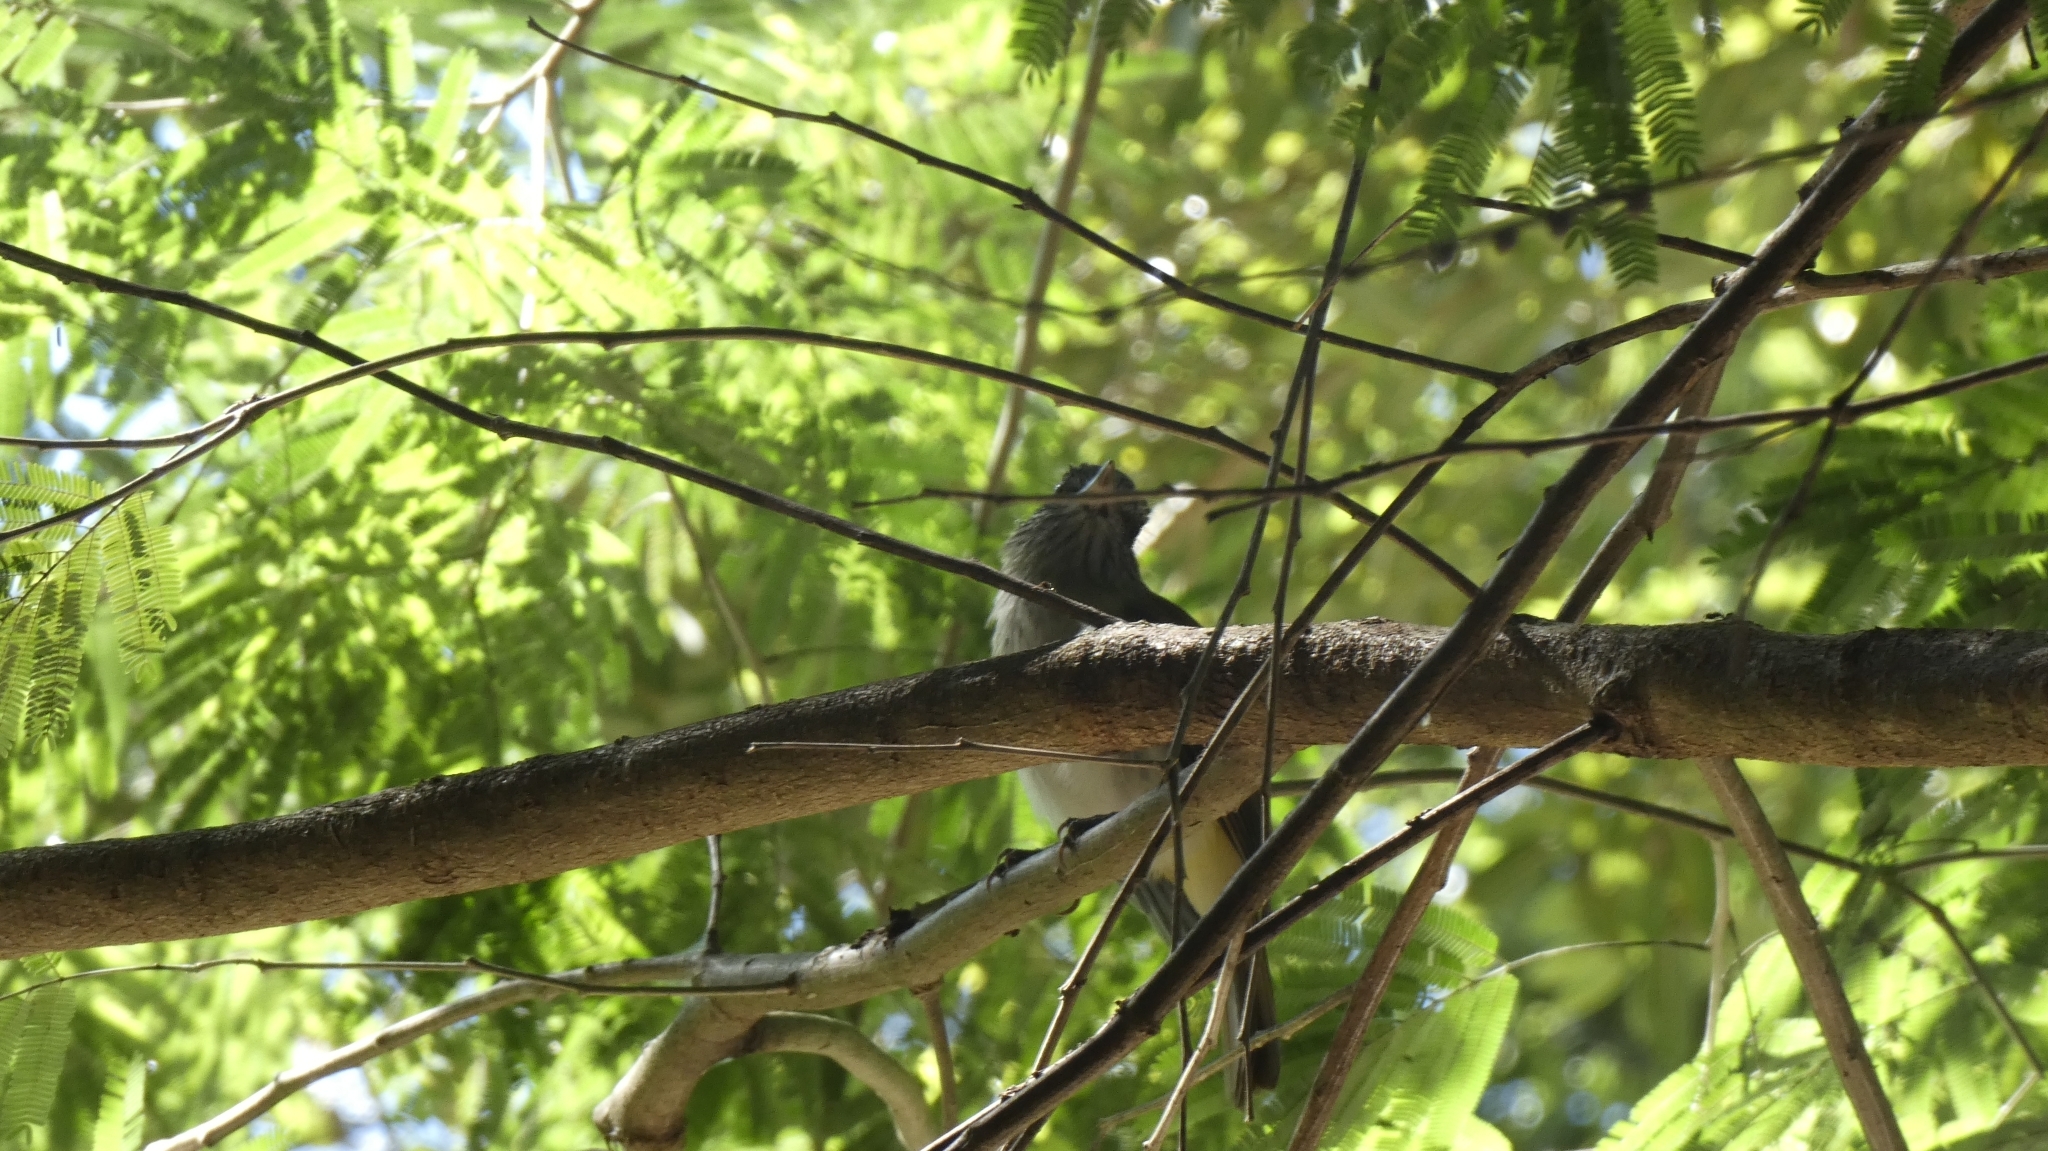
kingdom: Animalia
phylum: Chordata
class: Aves
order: Passeriformes
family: Tyrannidae
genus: Attila
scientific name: Attila spadiceus
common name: Bright-rumped attila
